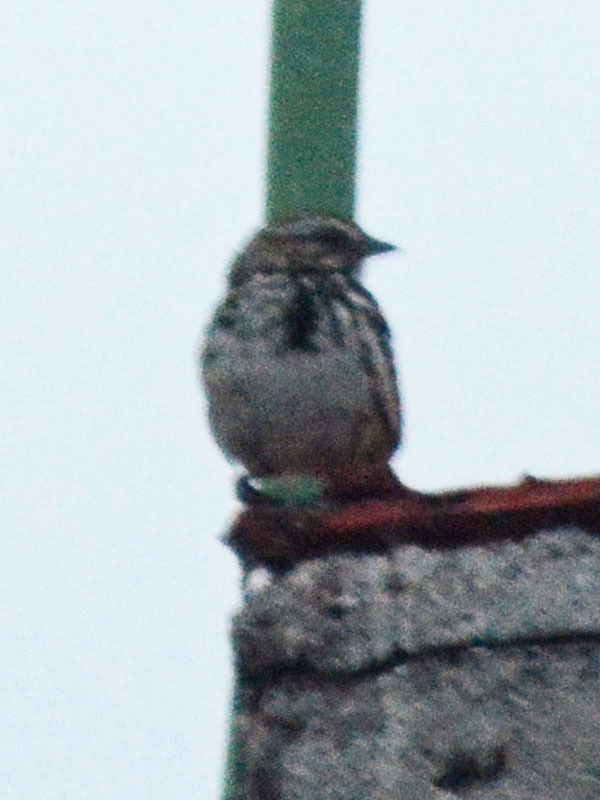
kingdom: Animalia
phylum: Chordata
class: Aves
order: Passeriformes
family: Passerellidae
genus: Melospiza
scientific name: Melospiza melodia
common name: Song sparrow
